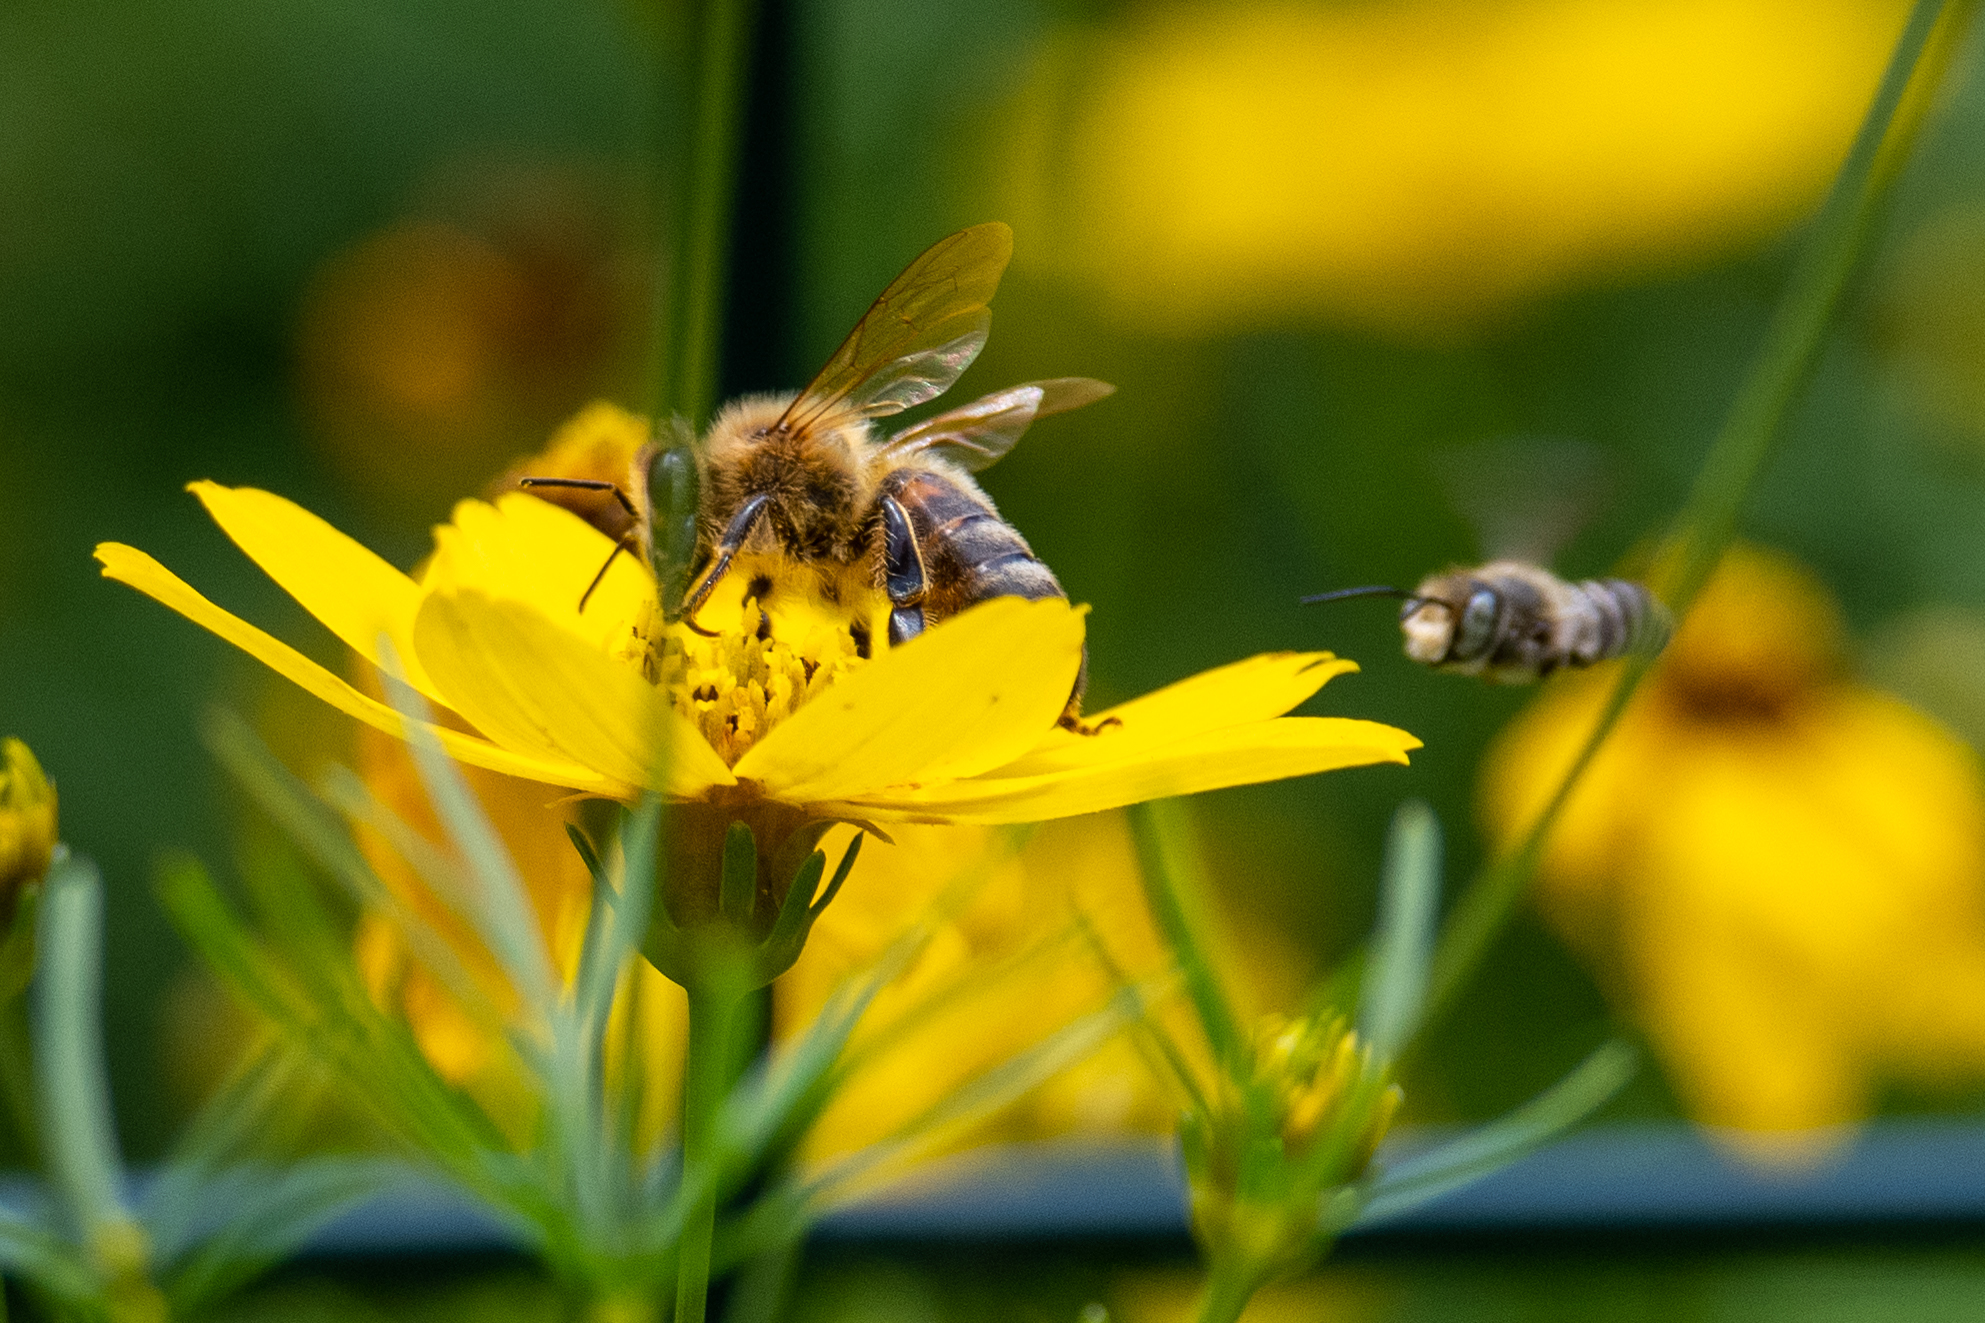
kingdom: Animalia
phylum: Arthropoda
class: Insecta
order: Hymenoptera
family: Apidae
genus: Apis
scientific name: Apis mellifera
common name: Honey bee
